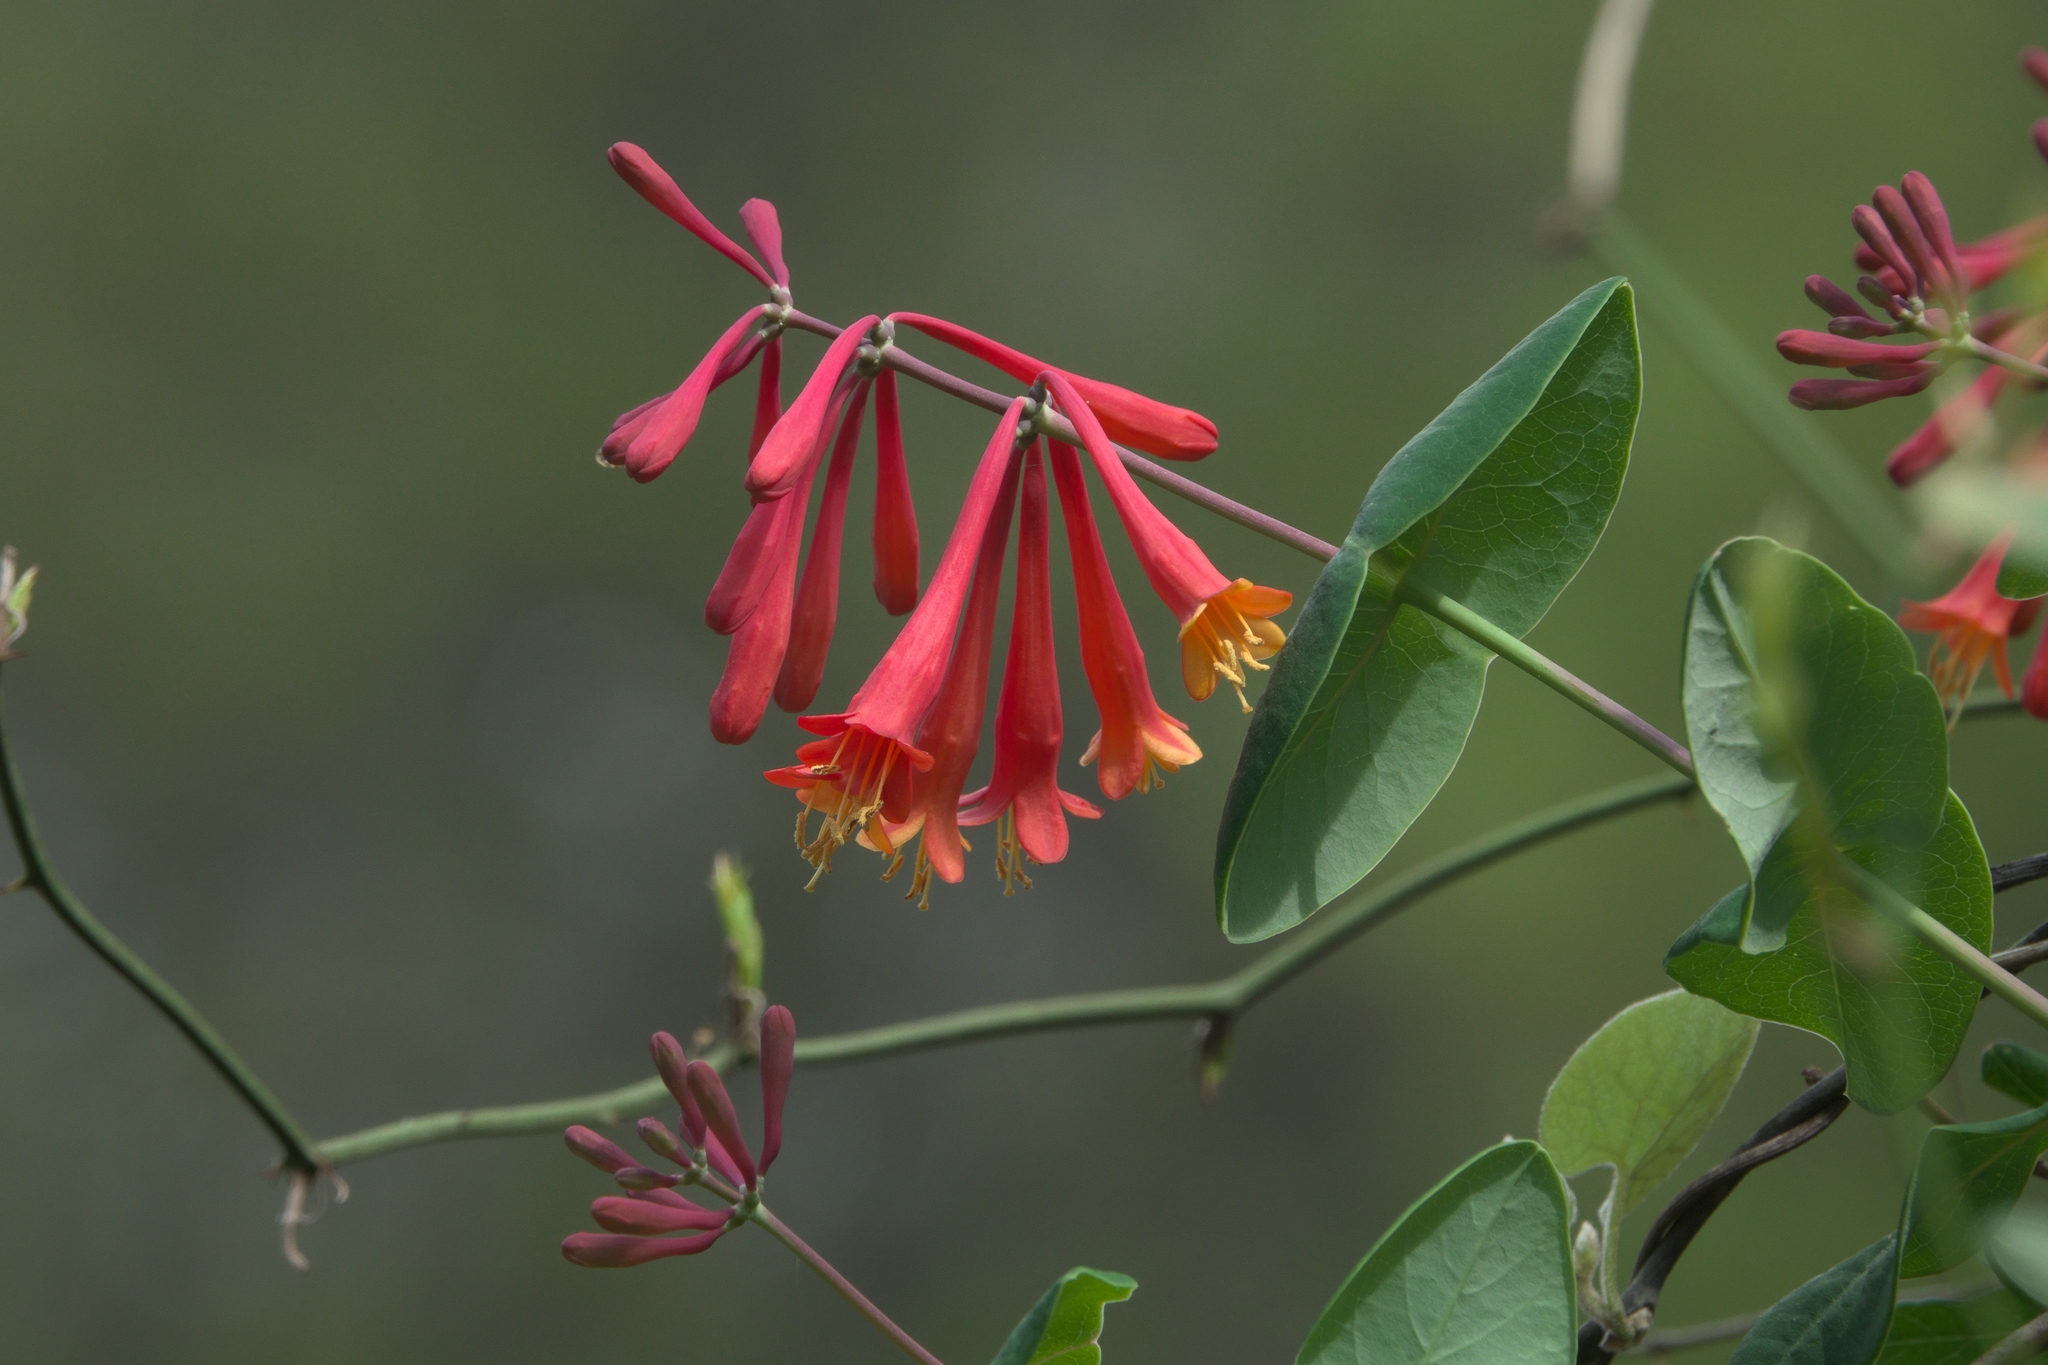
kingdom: Plantae
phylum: Tracheophyta
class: Magnoliopsida
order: Dipsacales
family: Caprifoliaceae
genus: Lonicera
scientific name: Lonicera sempervirens
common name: Coral honeysuckle
